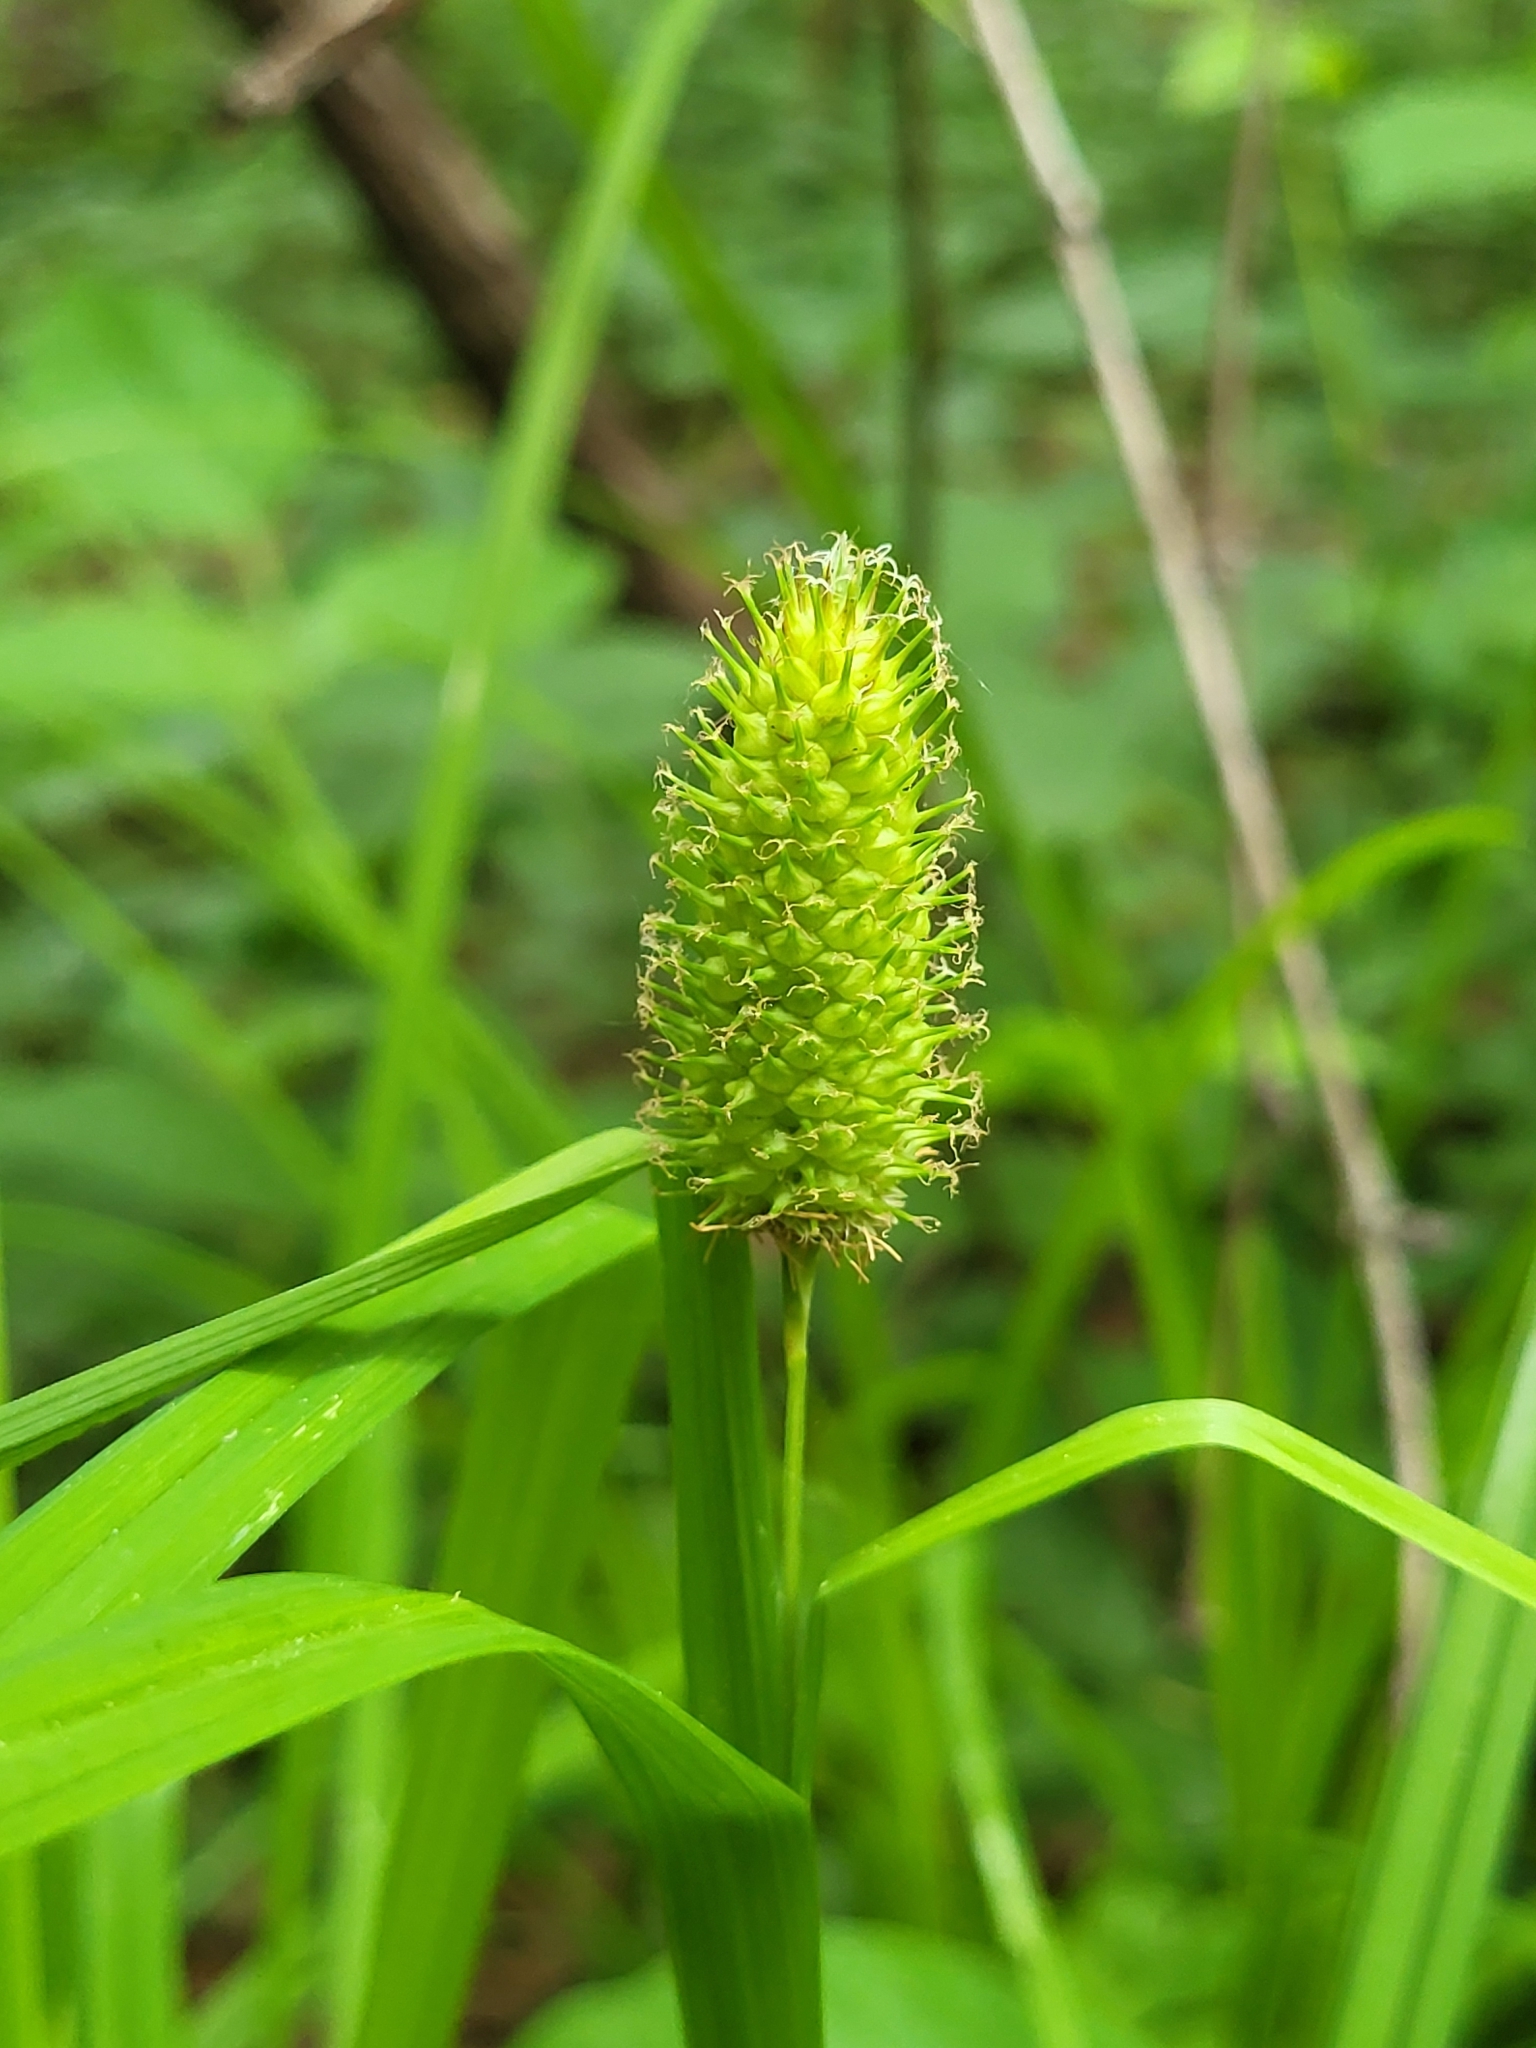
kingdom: Plantae
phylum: Tracheophyta
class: Liliopsida
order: Poales
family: Cyperaceae
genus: Carex
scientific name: Carex typhina
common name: Cattail sedge
